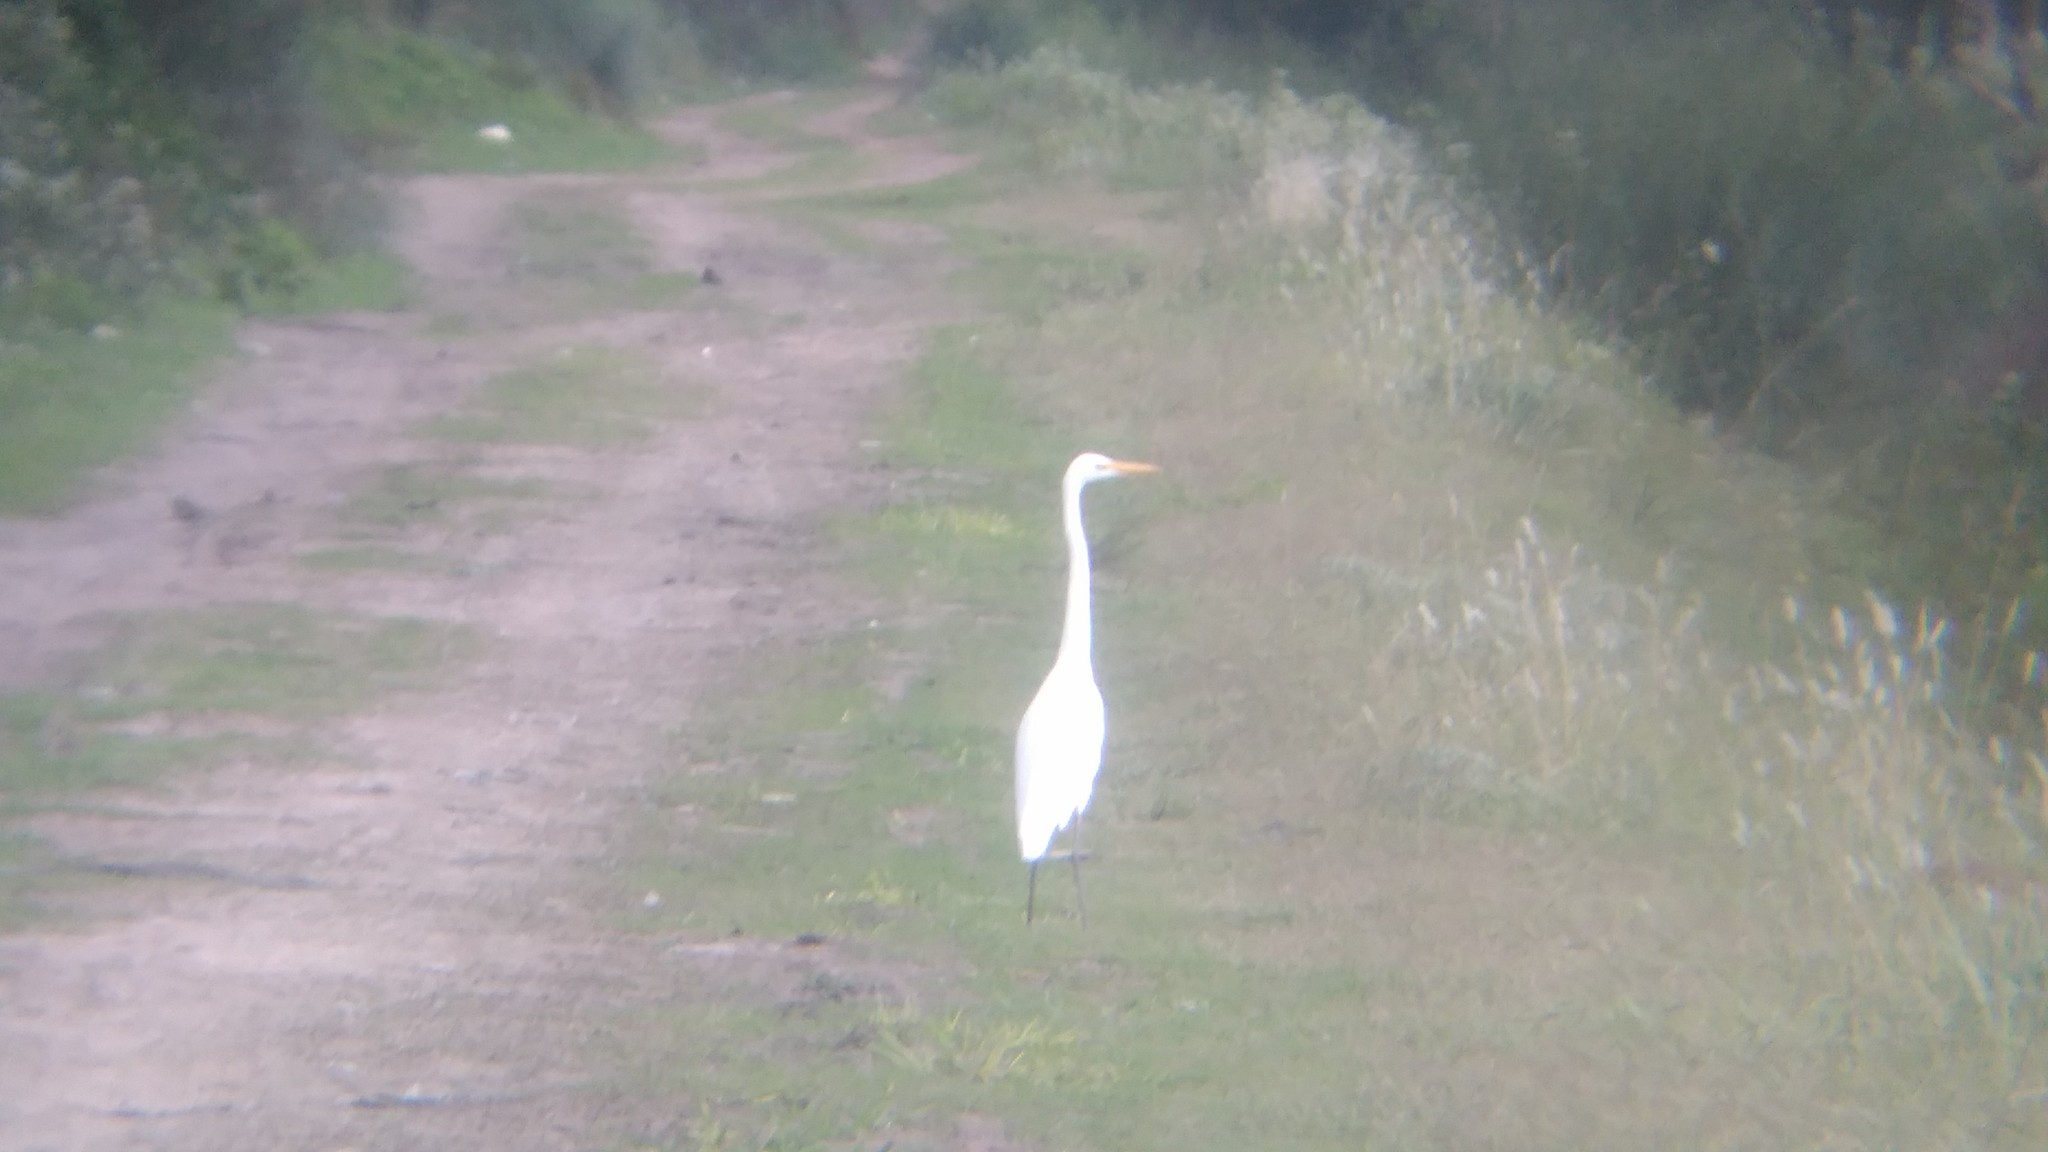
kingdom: Animalia
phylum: Chordata
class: Aves
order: Pelecaniformes
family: Ardeidae
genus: Ardea
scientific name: Ardea alba
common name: Great egret
